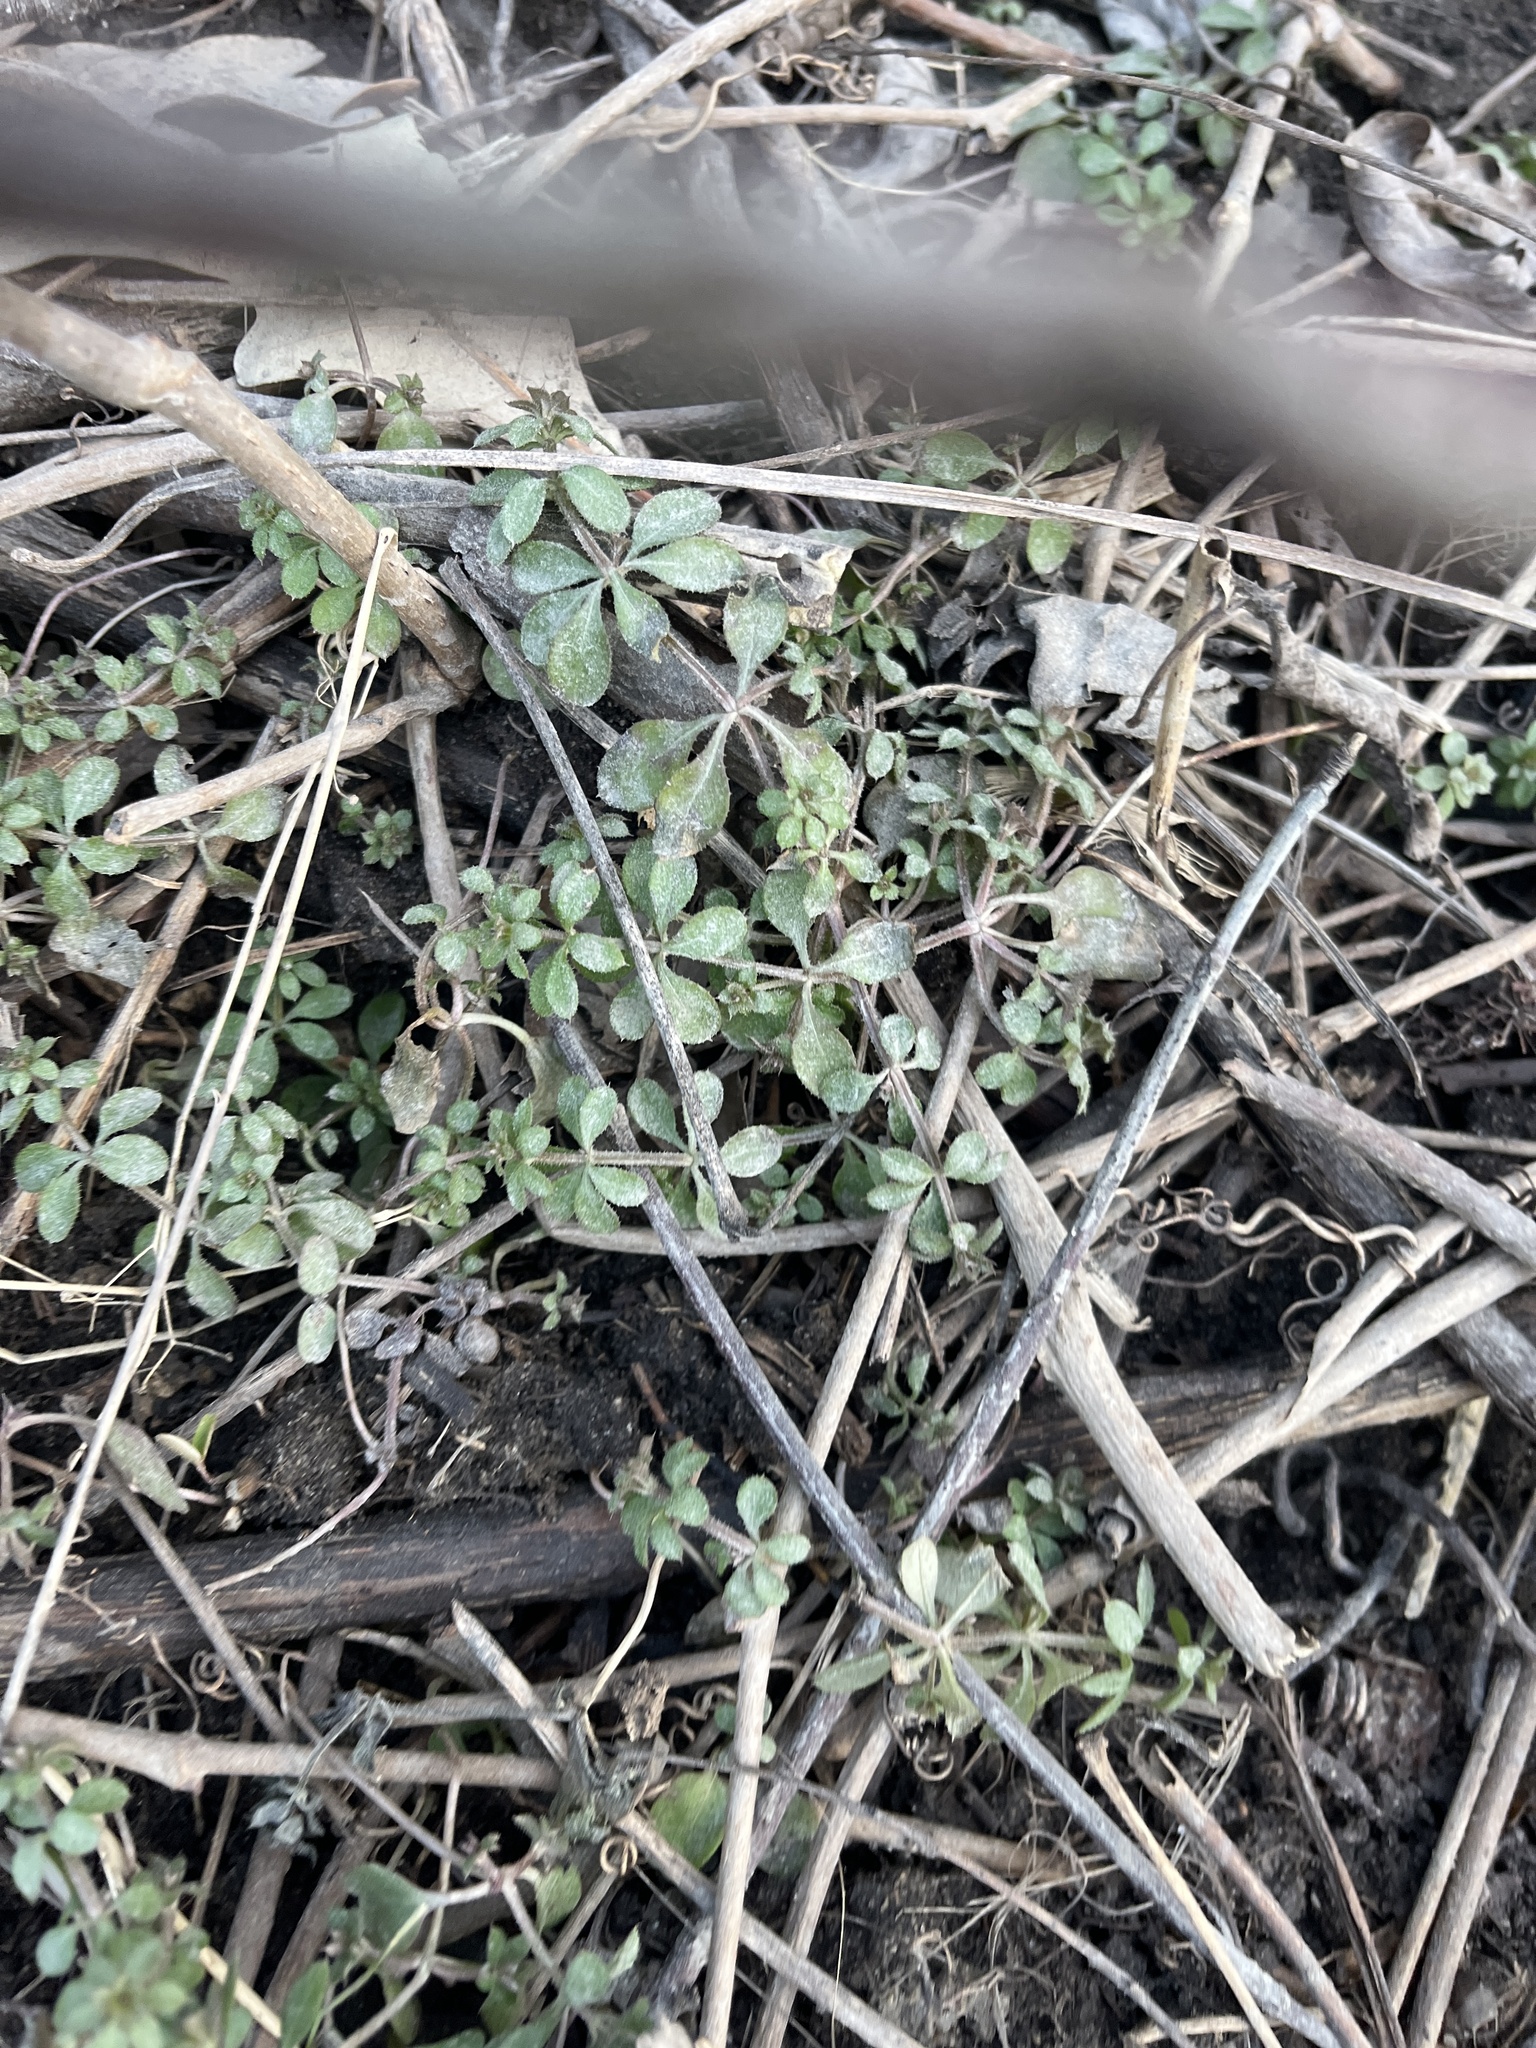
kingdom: Plantae
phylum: Tracheophyta
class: Magnoliopsida
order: Gentianales
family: Rubiaceae
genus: Galium
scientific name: Galium aparine
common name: Cleavers
